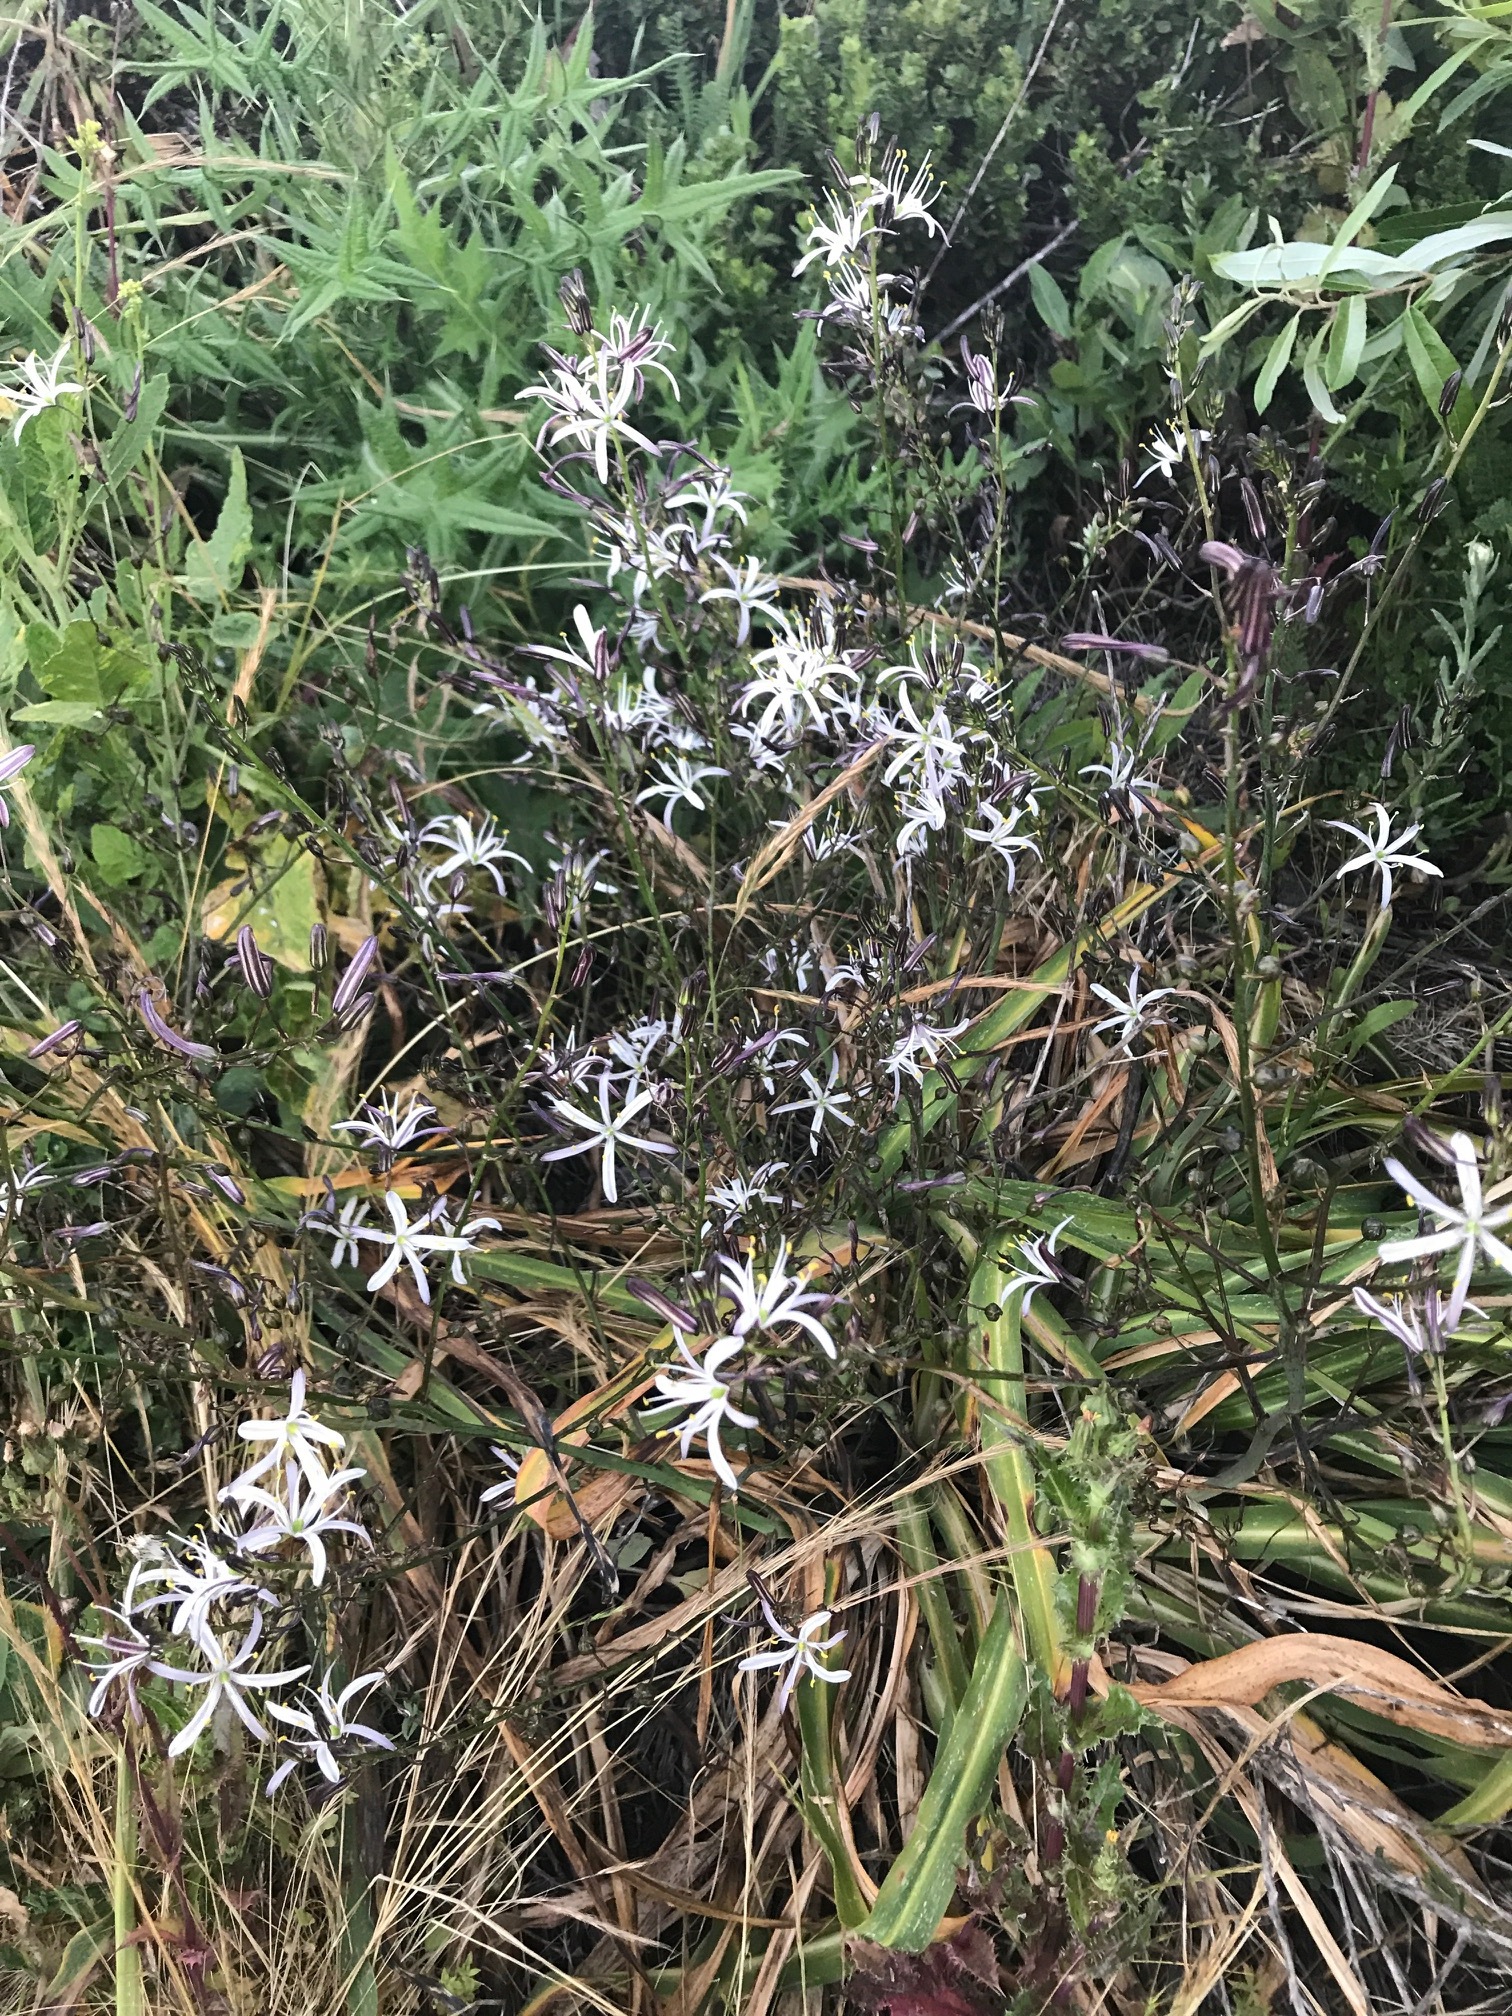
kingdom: Plantae
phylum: Tracheophyta
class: Liliopsida
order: Asparagales
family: Asparagaceae
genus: Chlorogalum
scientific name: Chlorogalum pomeridianum
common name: Amole
